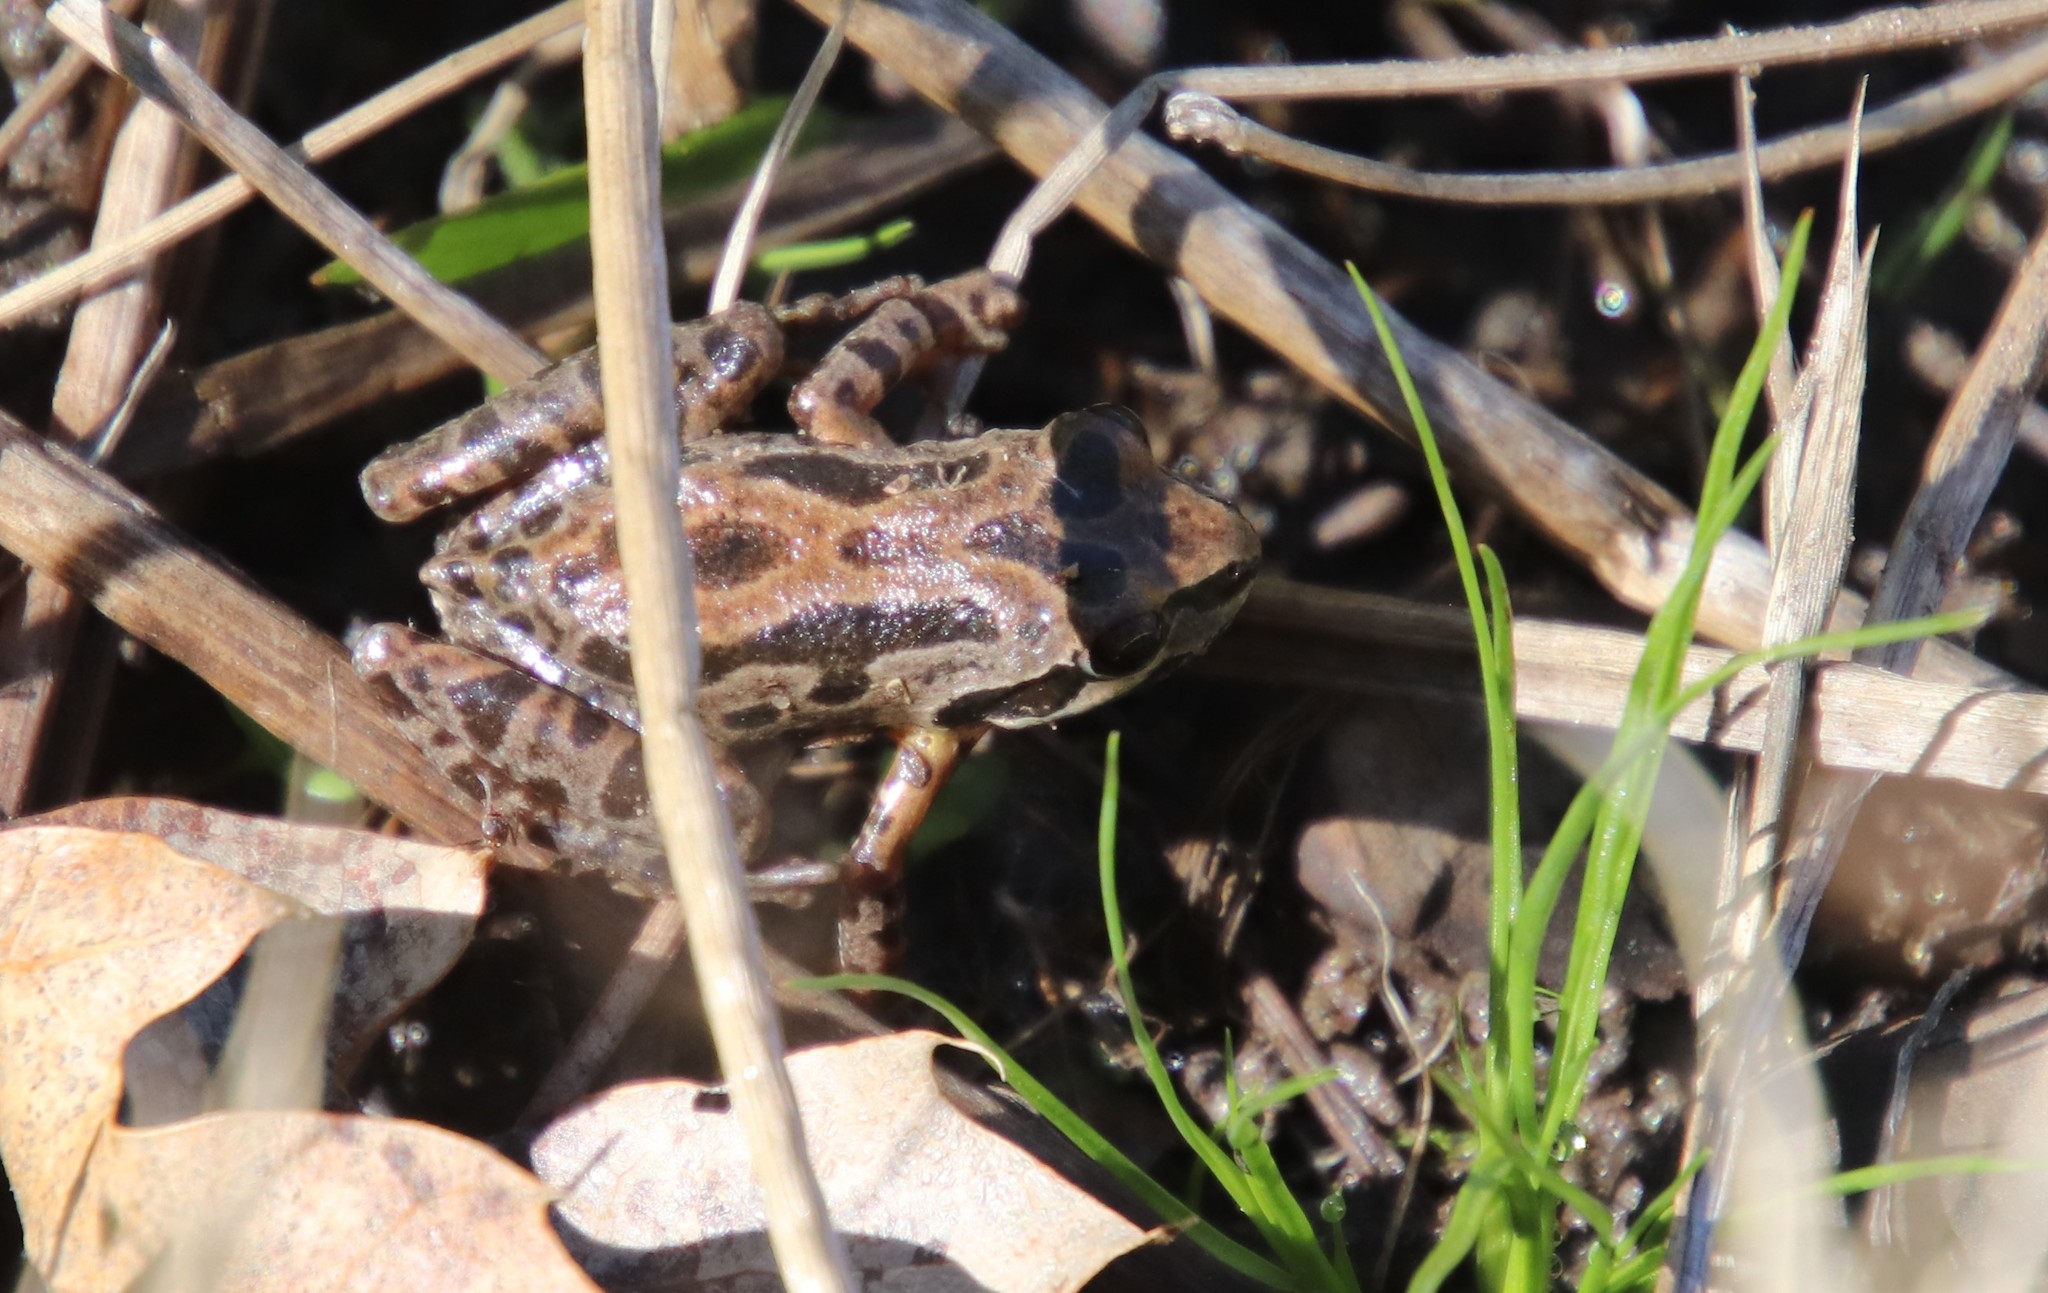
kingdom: Animalia
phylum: Chordata
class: Amphibia
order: Anura
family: Hylidae
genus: Pseudacris
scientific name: Pseudacris regilla
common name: Pacific chorus frog
